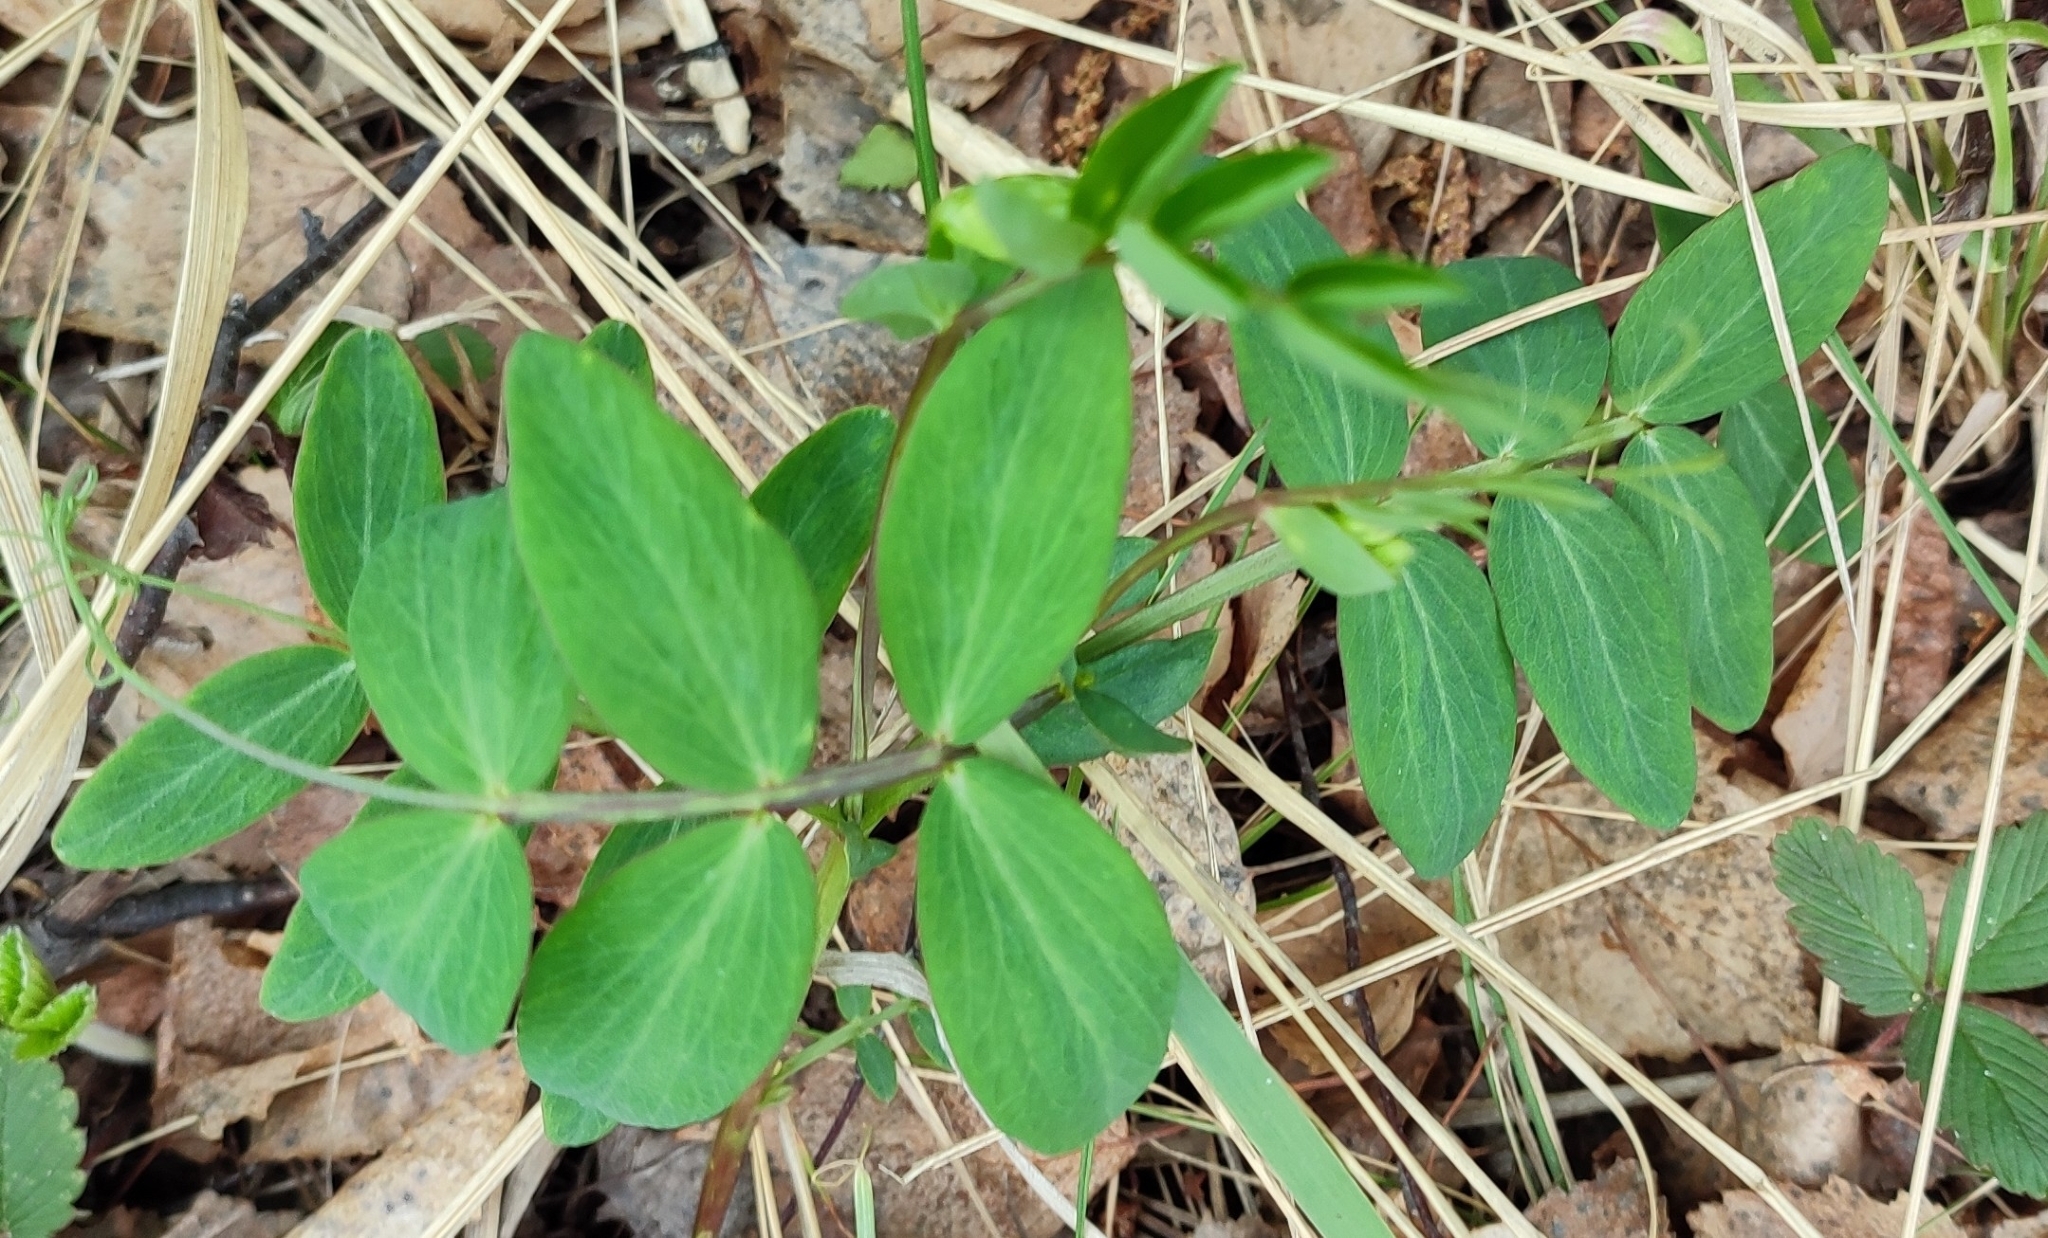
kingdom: Plantae
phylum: Tracheophyta
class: Magnoliopsida
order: Fabales
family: Fabaceae
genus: Lathyrus
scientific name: Lathyrus pisiformis
